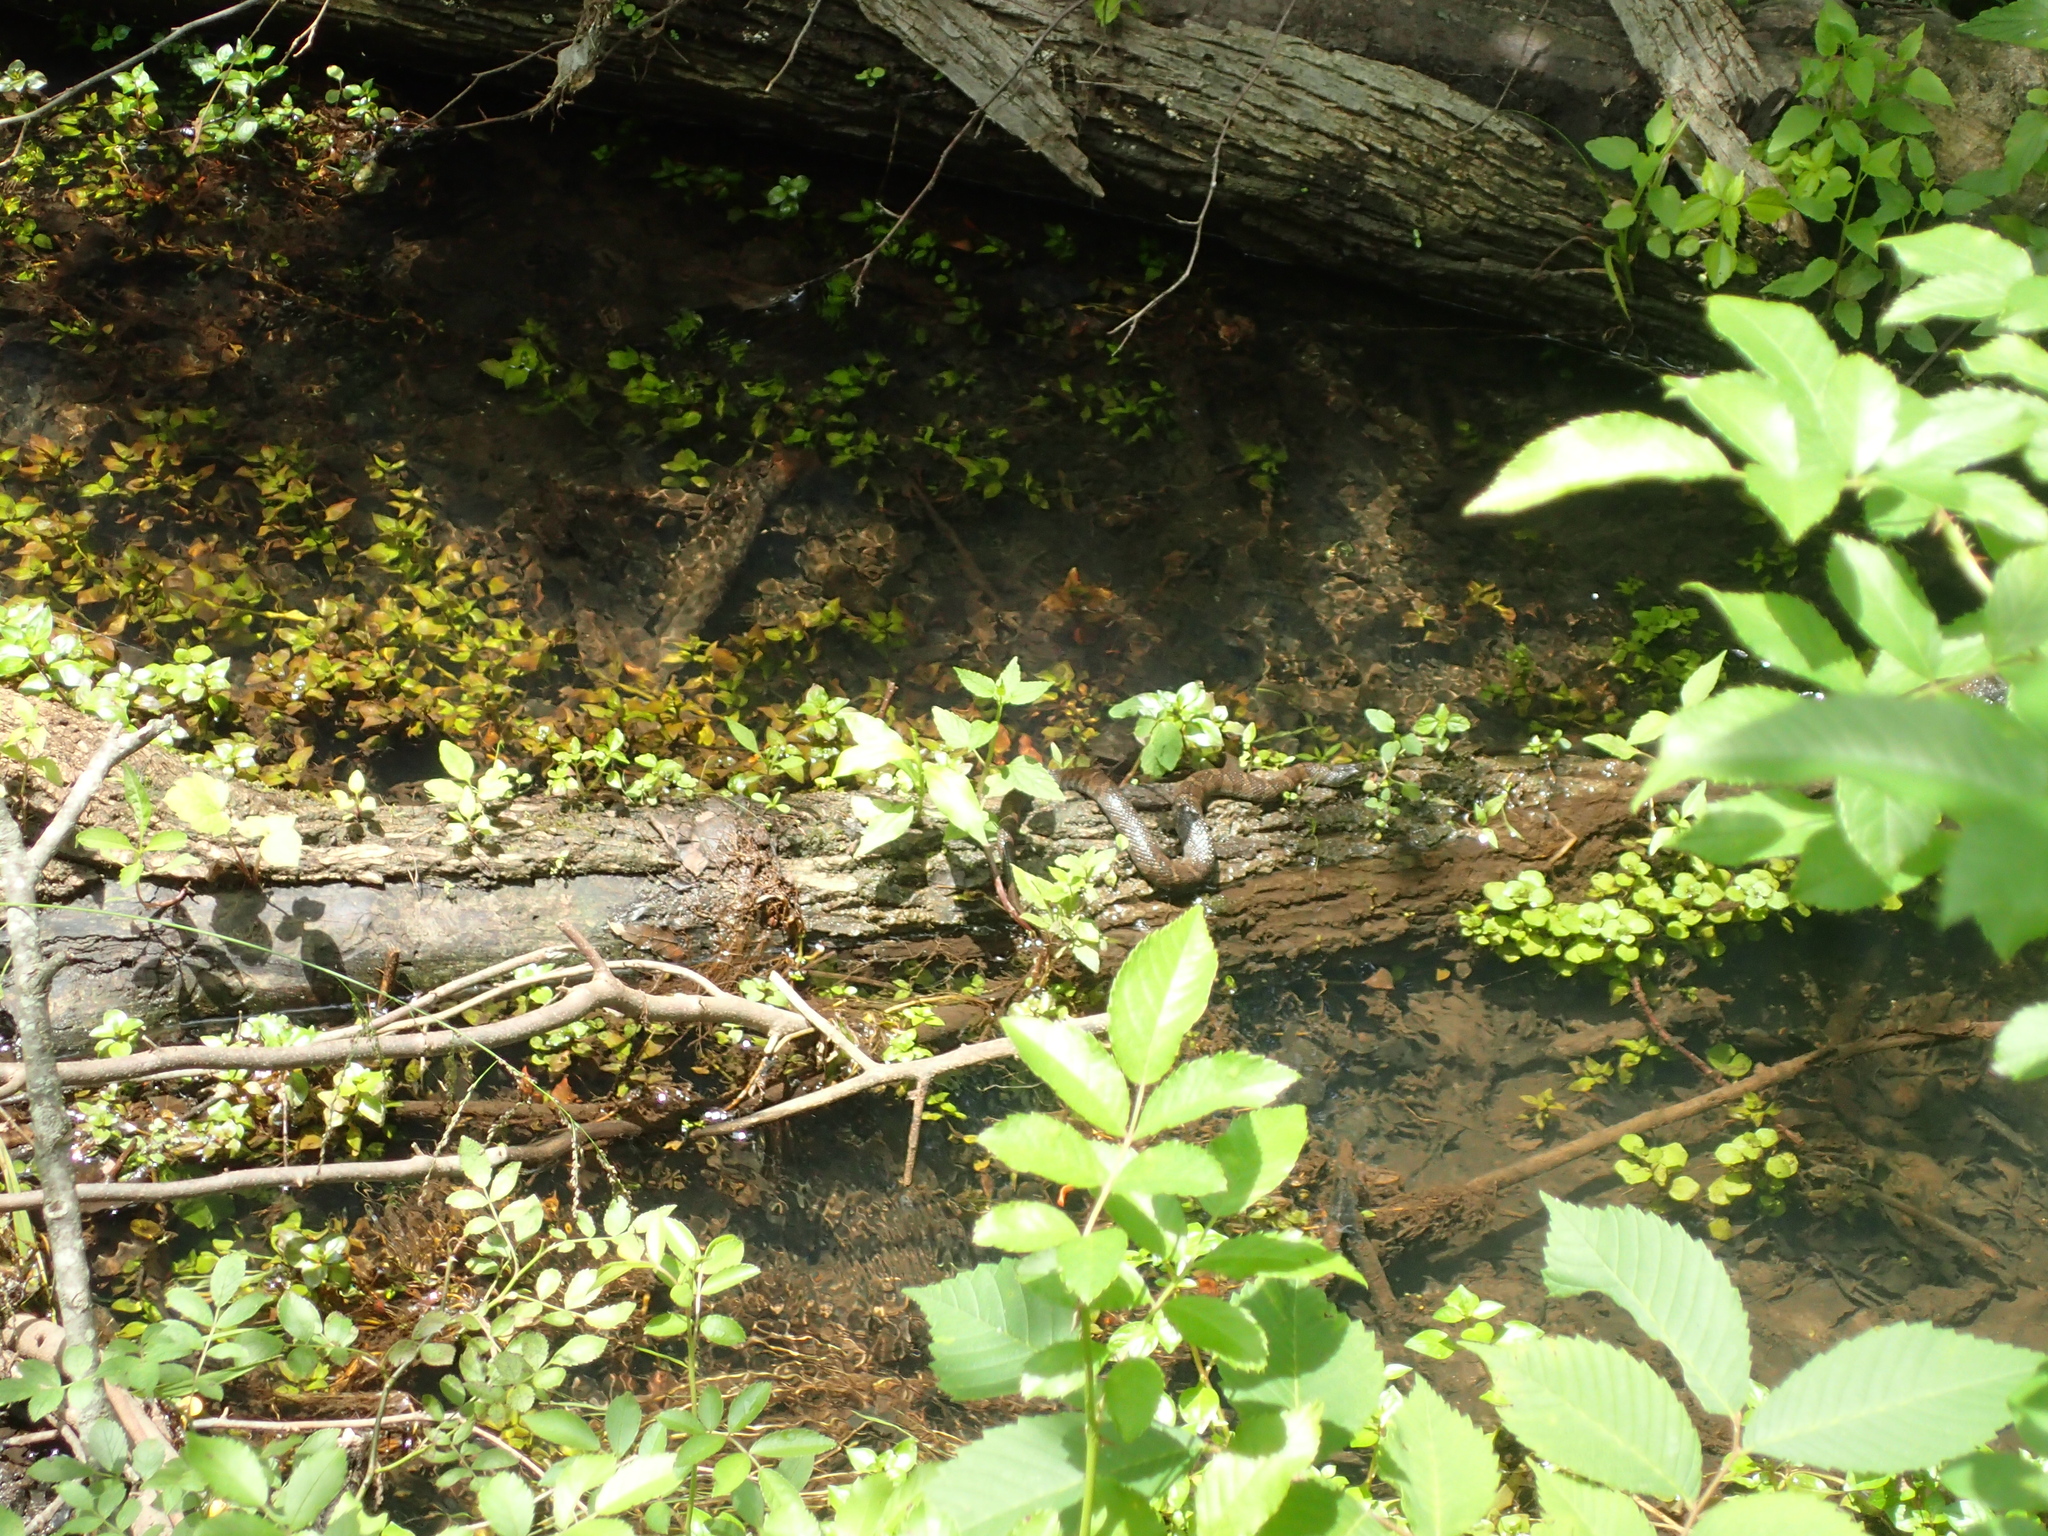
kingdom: Animalia
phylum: Chordata
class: Squamata
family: Colubridae
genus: Nerodia
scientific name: Nerodia sipedon
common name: Northern water snake
